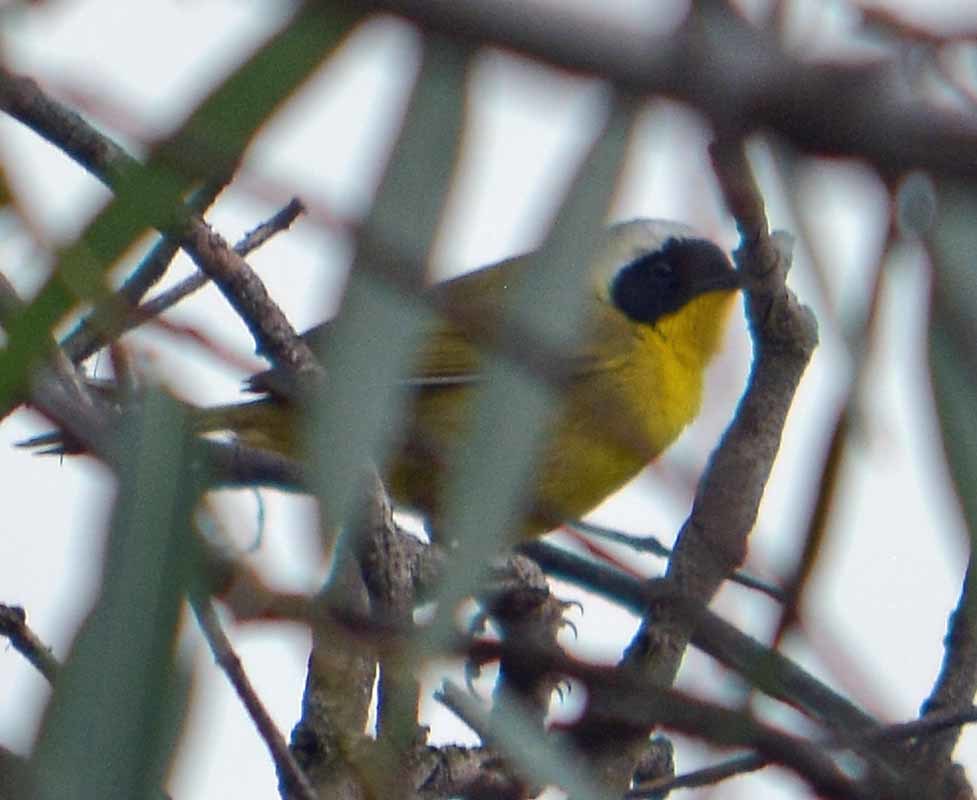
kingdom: Animalia
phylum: Chordata
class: Aves
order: Passeriformes
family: Parulidae
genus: Geothlypis
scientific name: Geothlypis trichas
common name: Common yellowthroat
